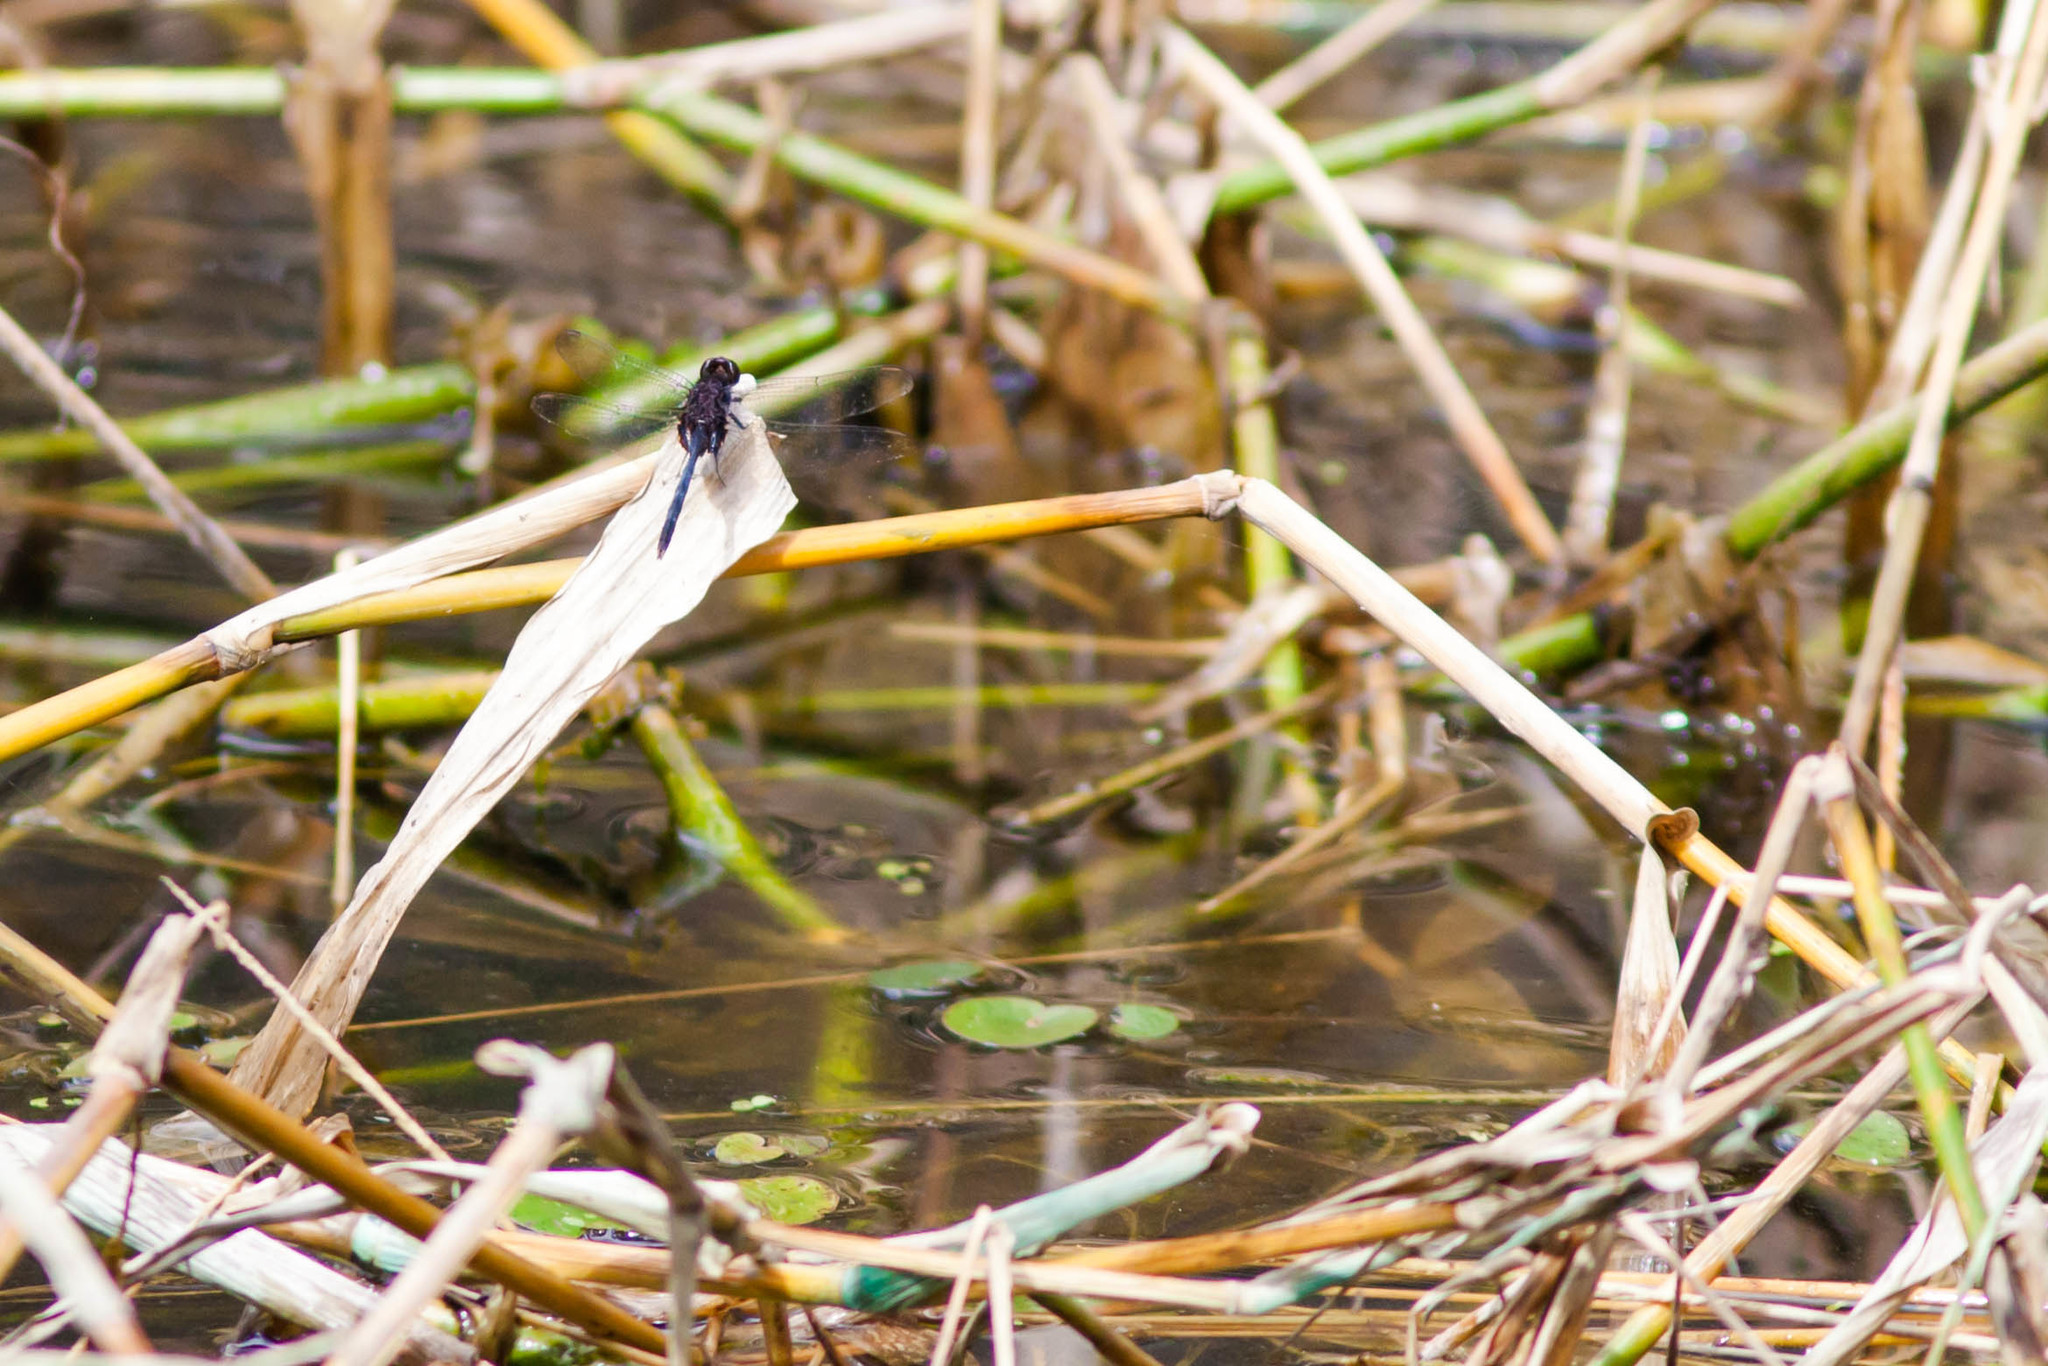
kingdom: Animalia
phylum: Arthropoda
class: Insecta
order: Odonata
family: Libellulidae
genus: Erythemis
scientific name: Erythemis plebeja
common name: Pin-tailed pondhawk
